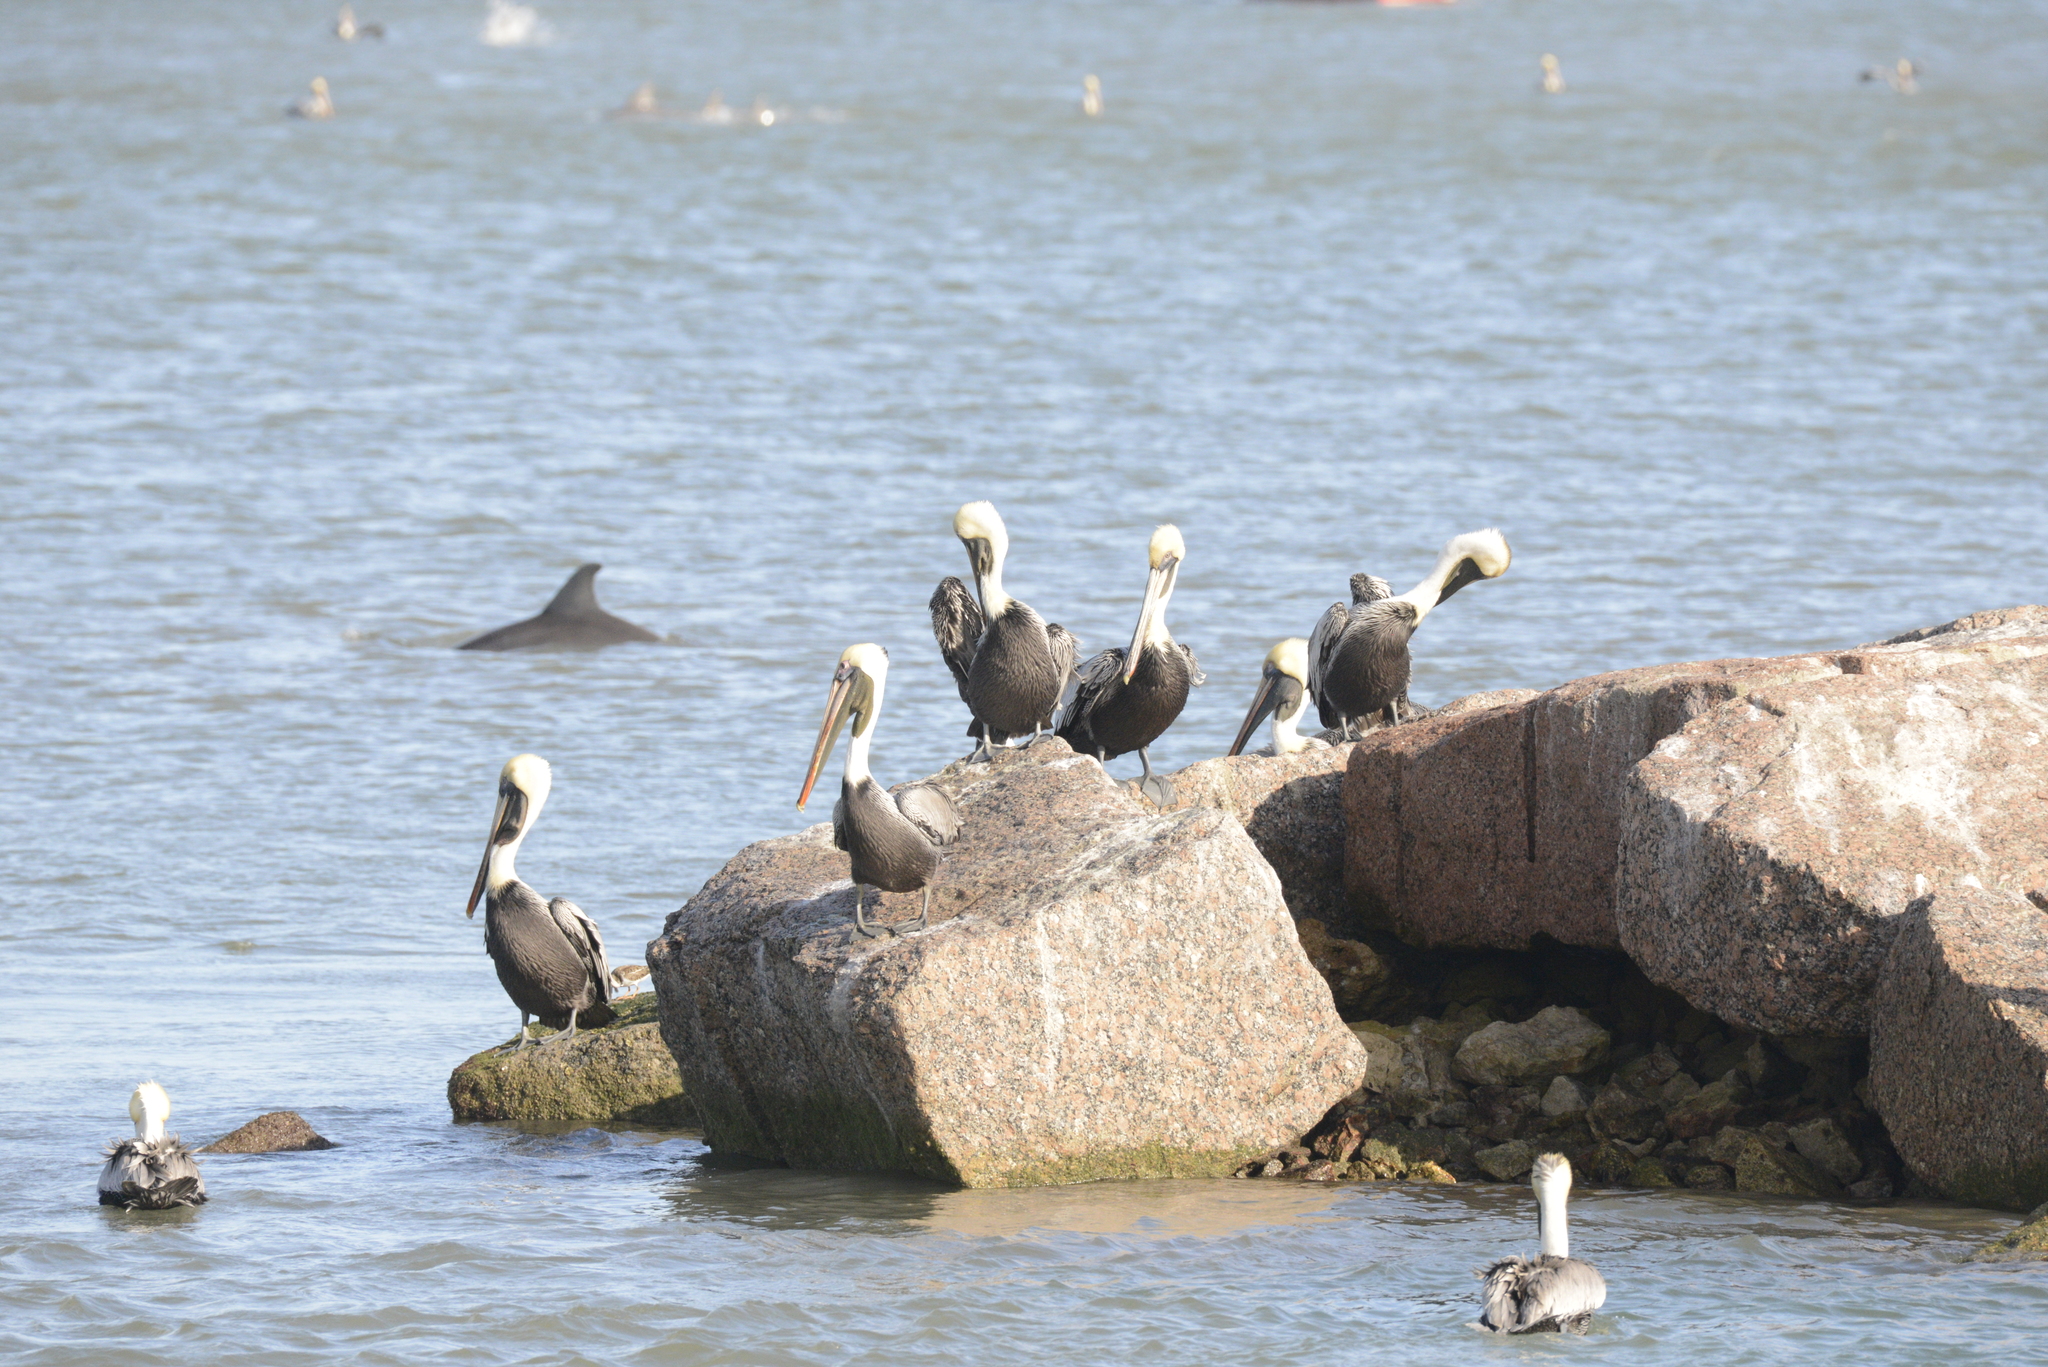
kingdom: Animalia
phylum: Chordata
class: Aves
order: Pelecaniformes
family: Pelecanidae
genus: Pelecanus
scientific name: Pelecanus occidentalis
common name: Brown pelican
